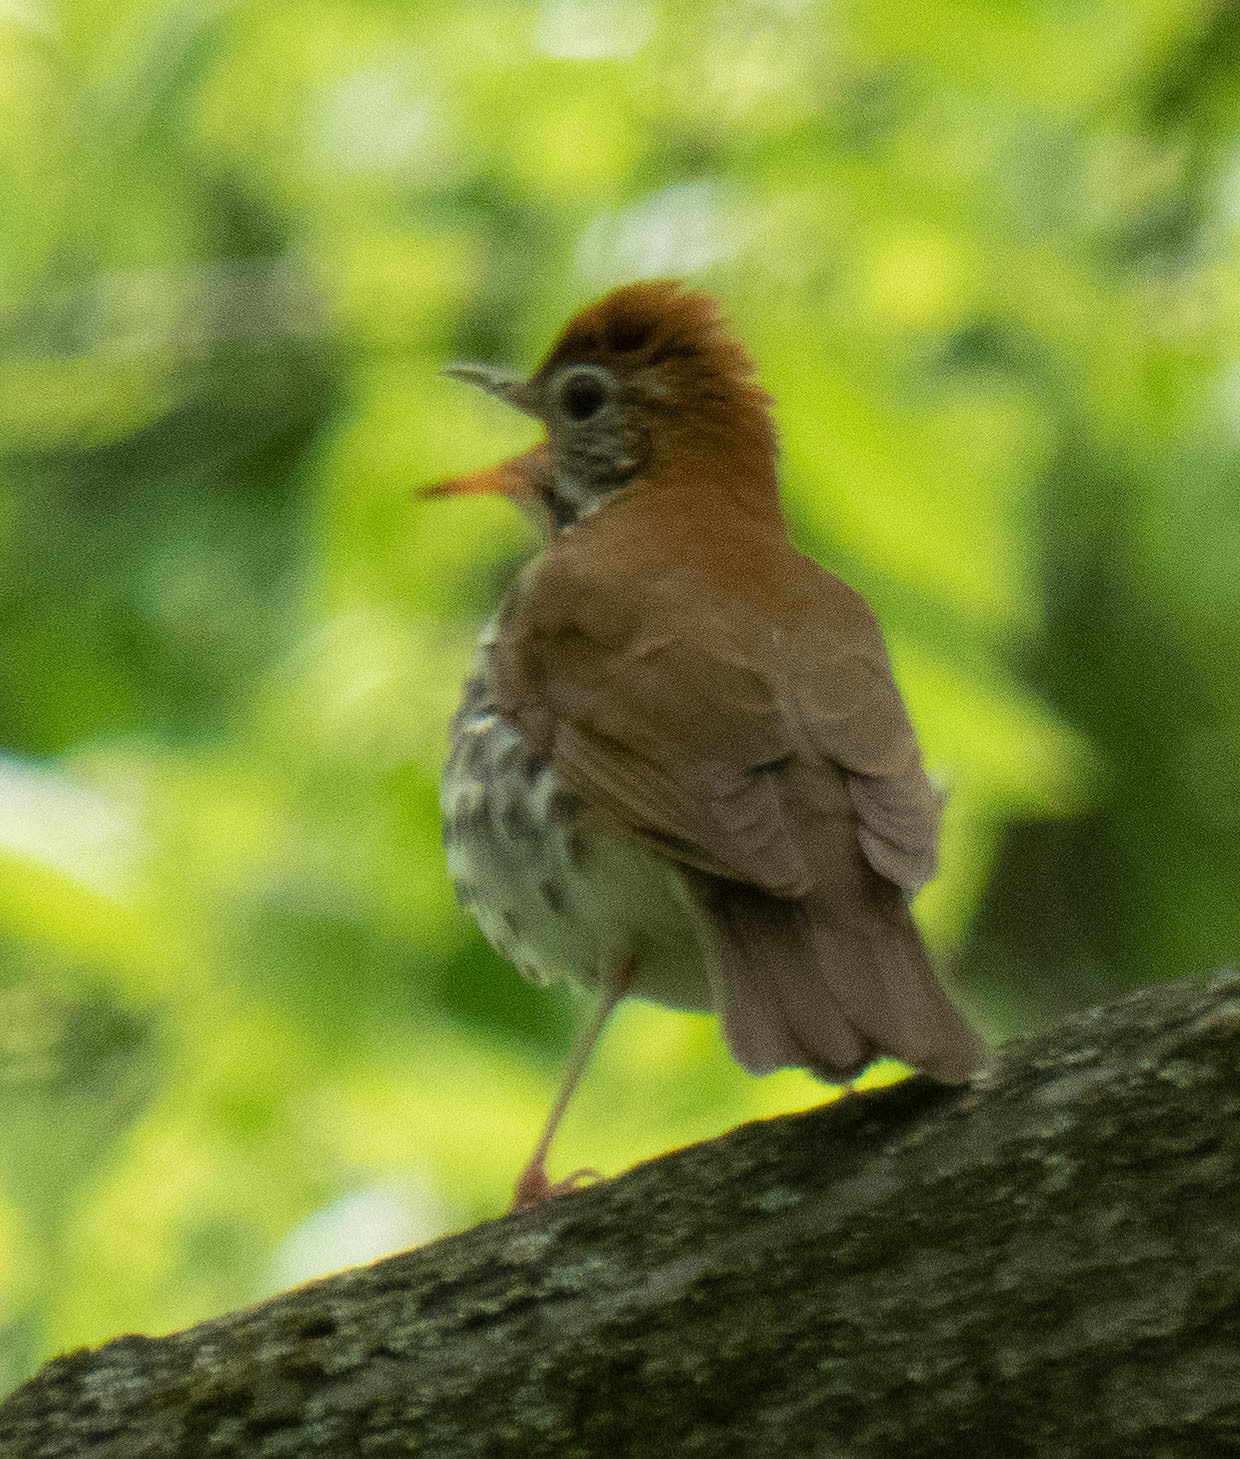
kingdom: Animalia
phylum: Chordata
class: Aves
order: Passeriformes
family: Turdidae
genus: Hylocichla
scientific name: Hylocichla mustelina
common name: Wood thrush
